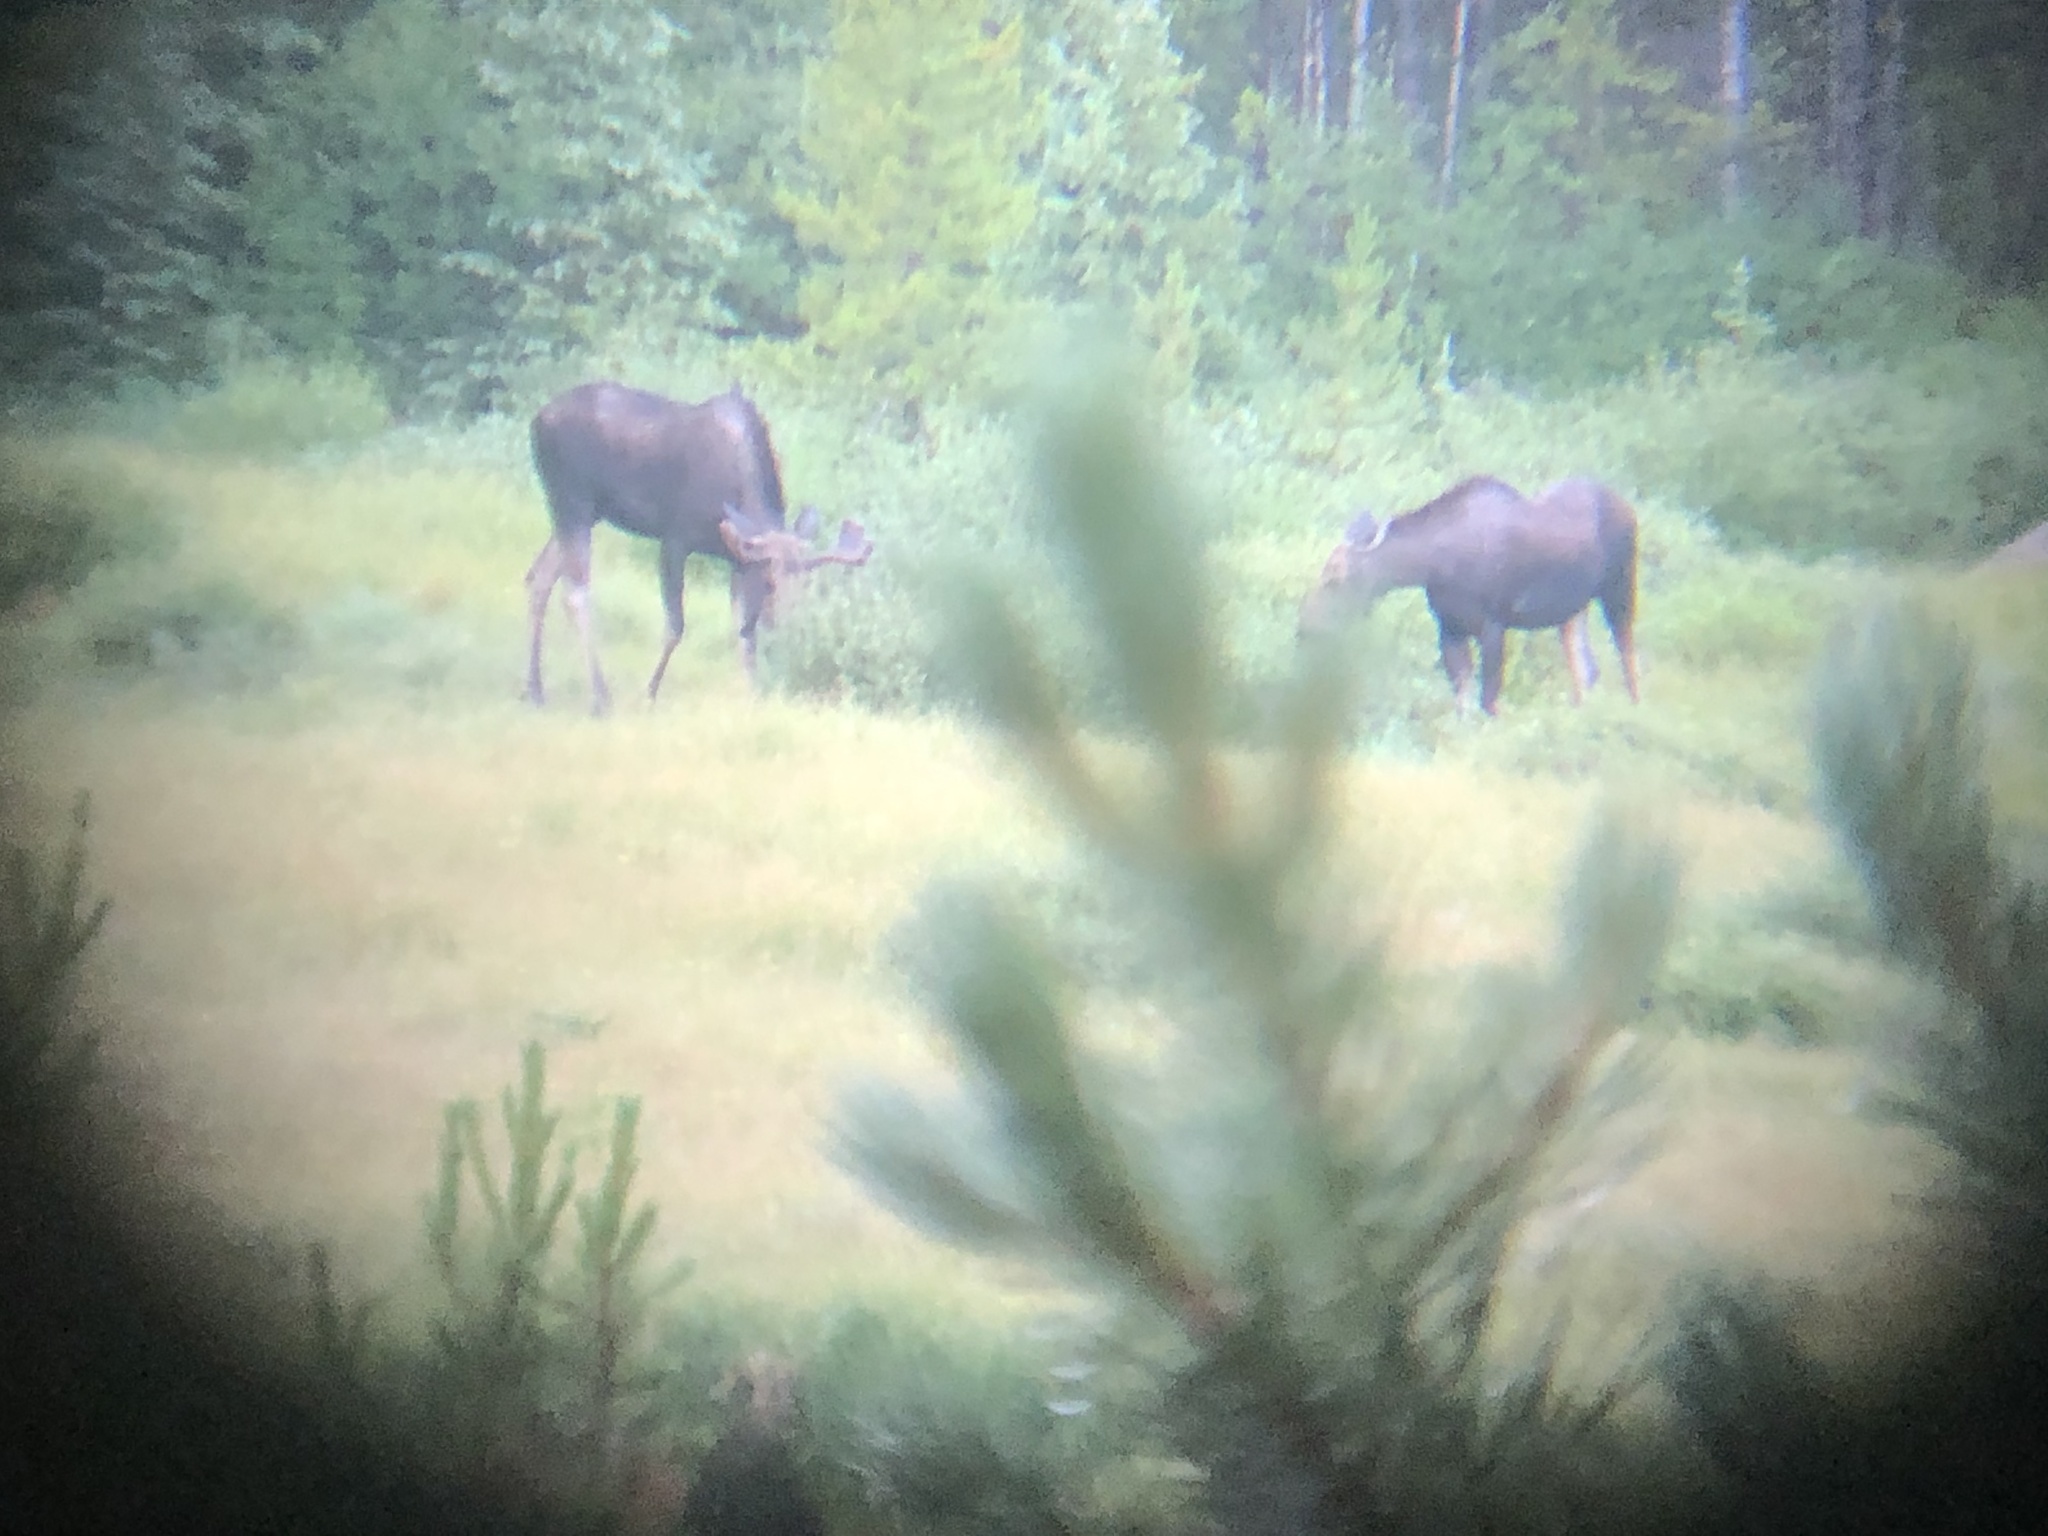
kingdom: Animalia
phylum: Chordata
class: Mammalia
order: Artiodactyla
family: Cervidae
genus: Alces
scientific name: Alces alces
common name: Moose
